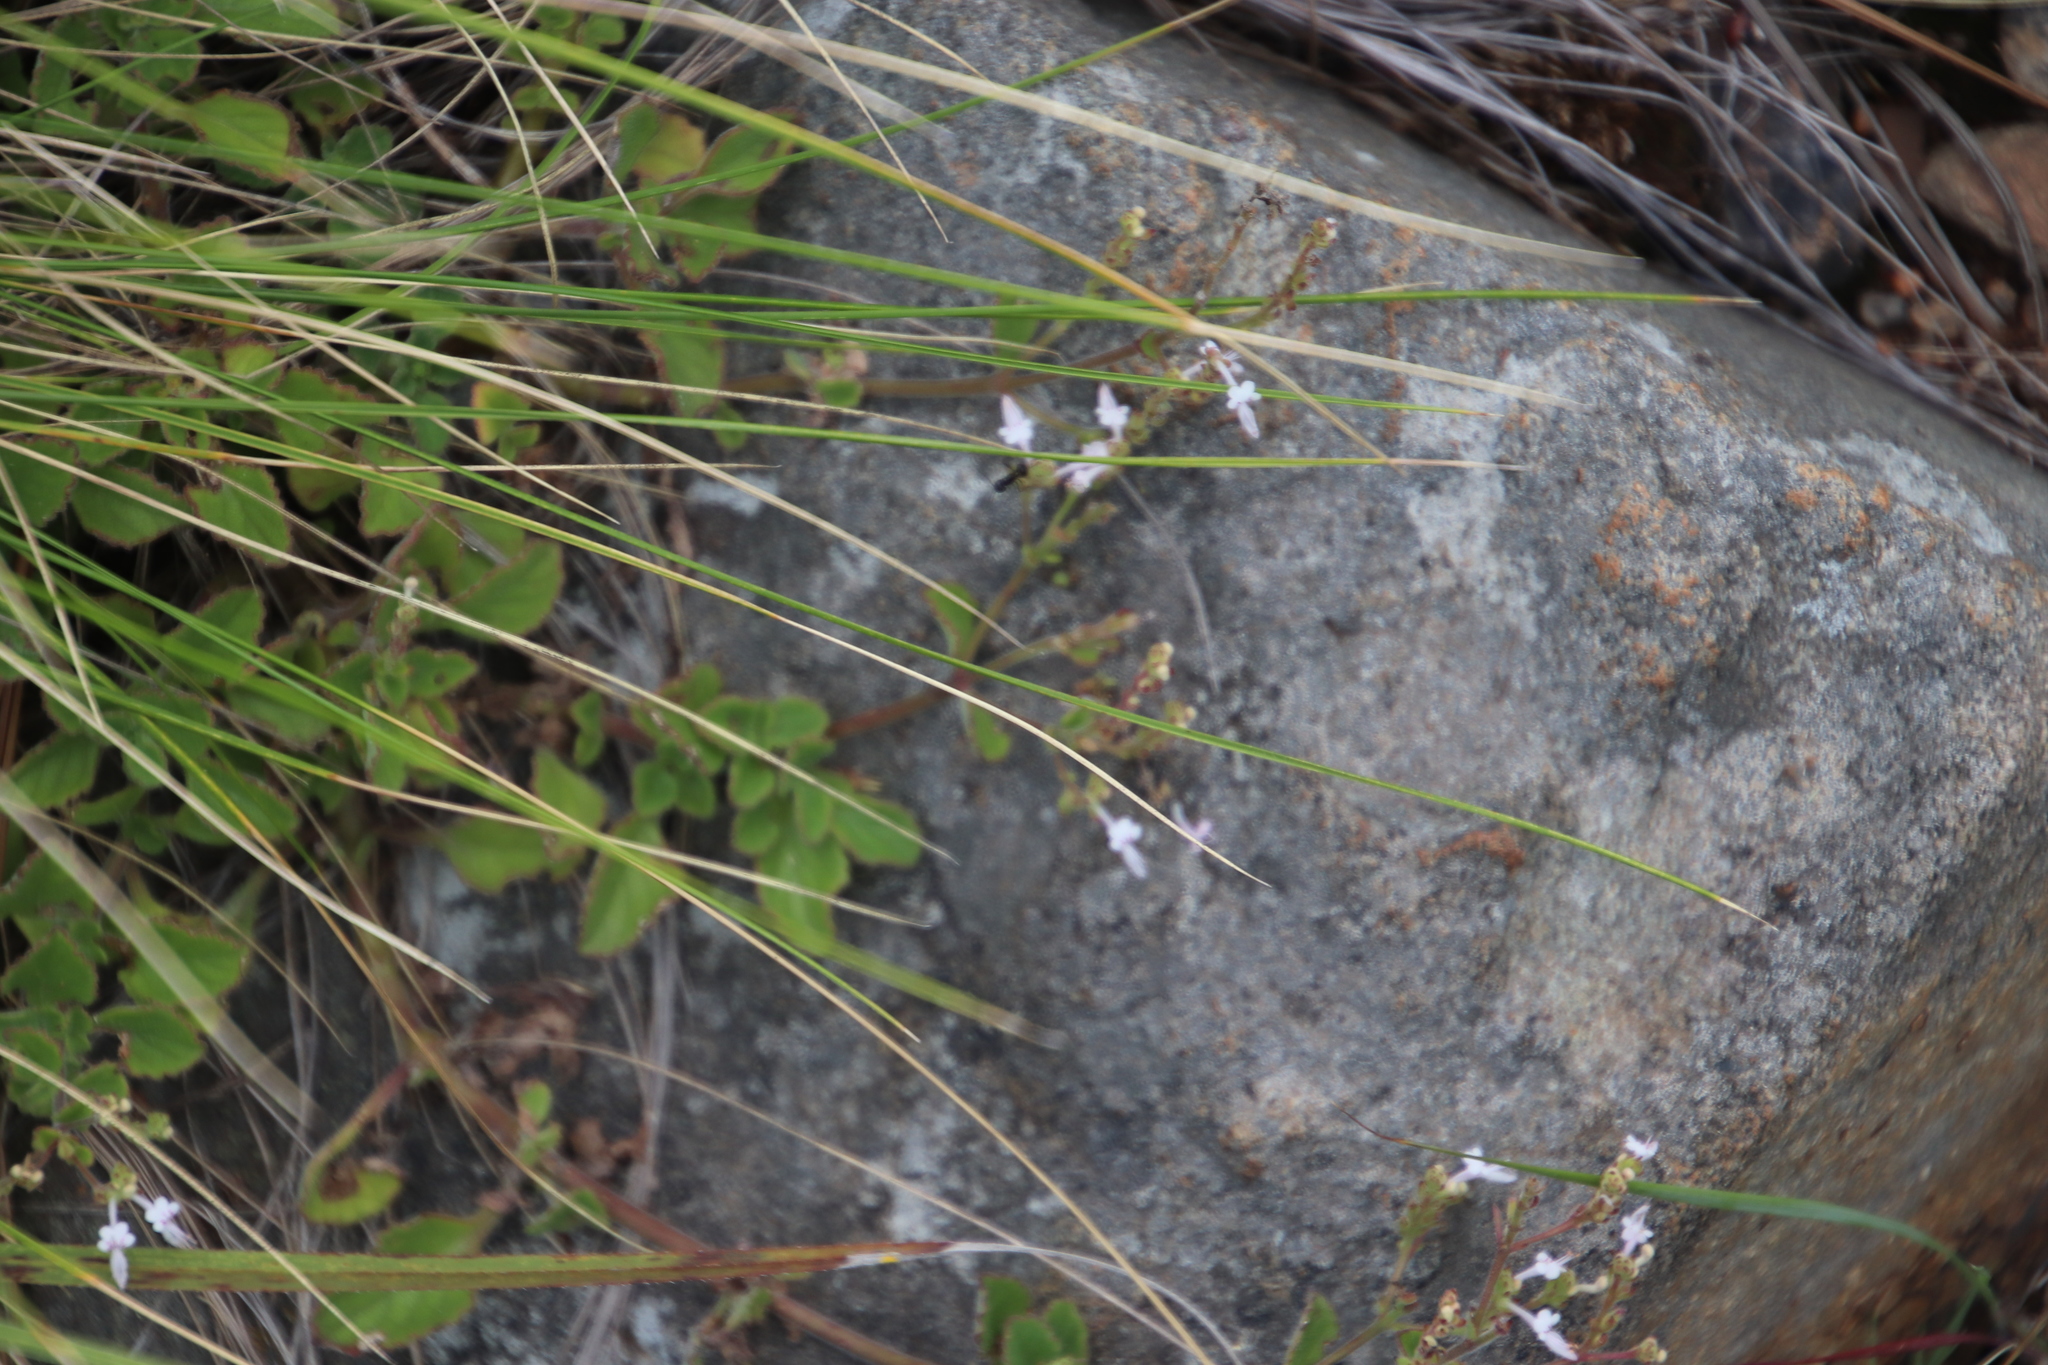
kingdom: Plantae
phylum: Tracheophyta
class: Magnoliopsida
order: Lamiales
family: Lamiaceae
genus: Aeollanthus
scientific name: Aeollanthus rehmannii
